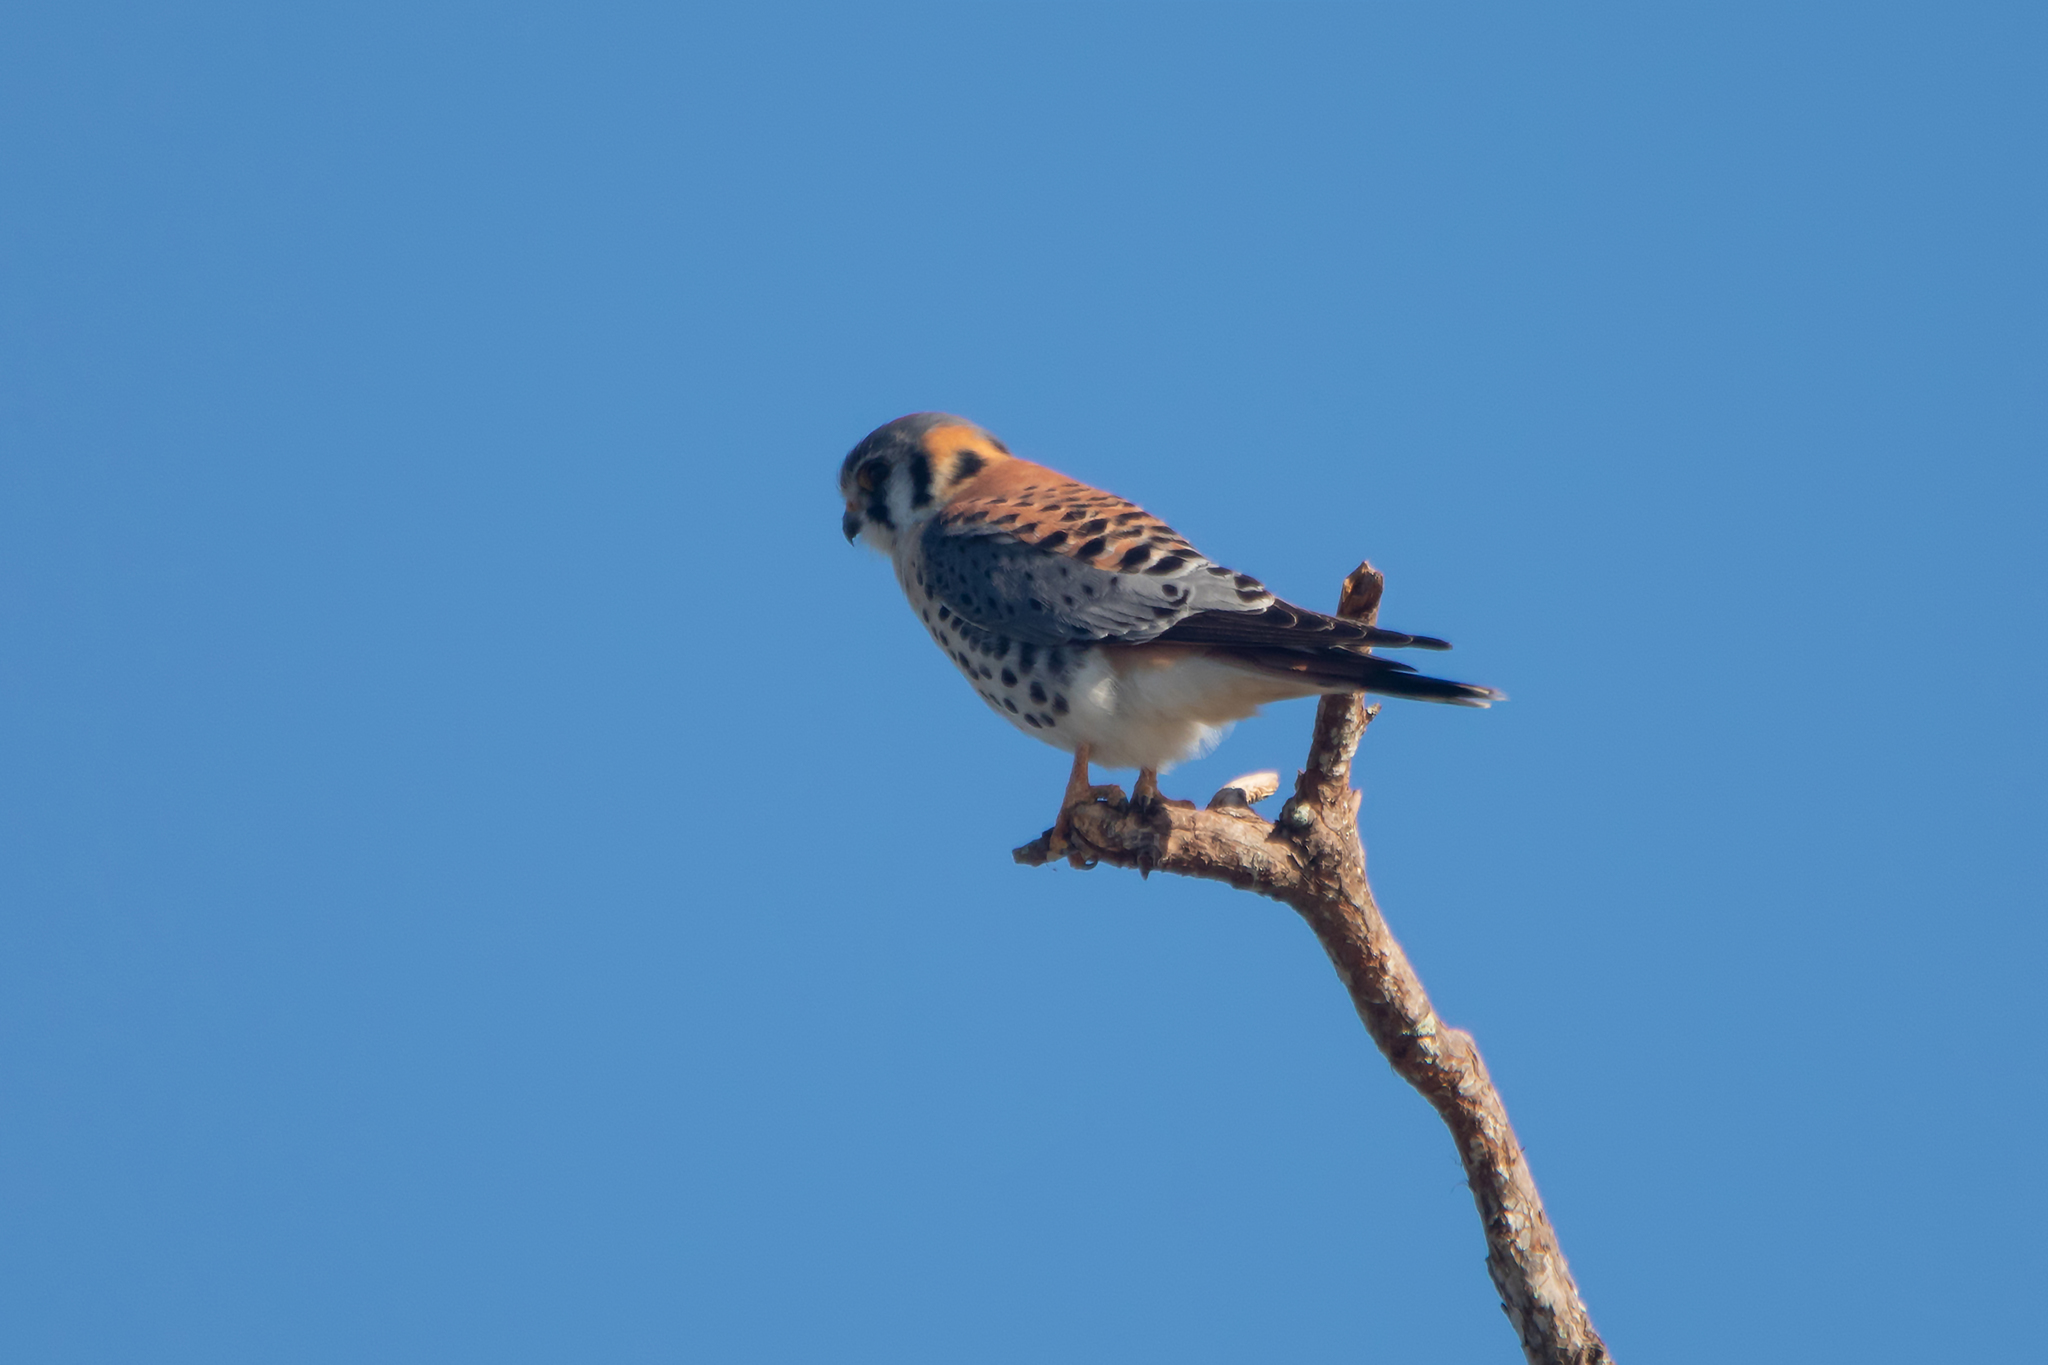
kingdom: Animalia
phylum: Chordata
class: Aves
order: Falconiformes
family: Falconidae
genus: Falco
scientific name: Falco sparverius
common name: American kestrel
